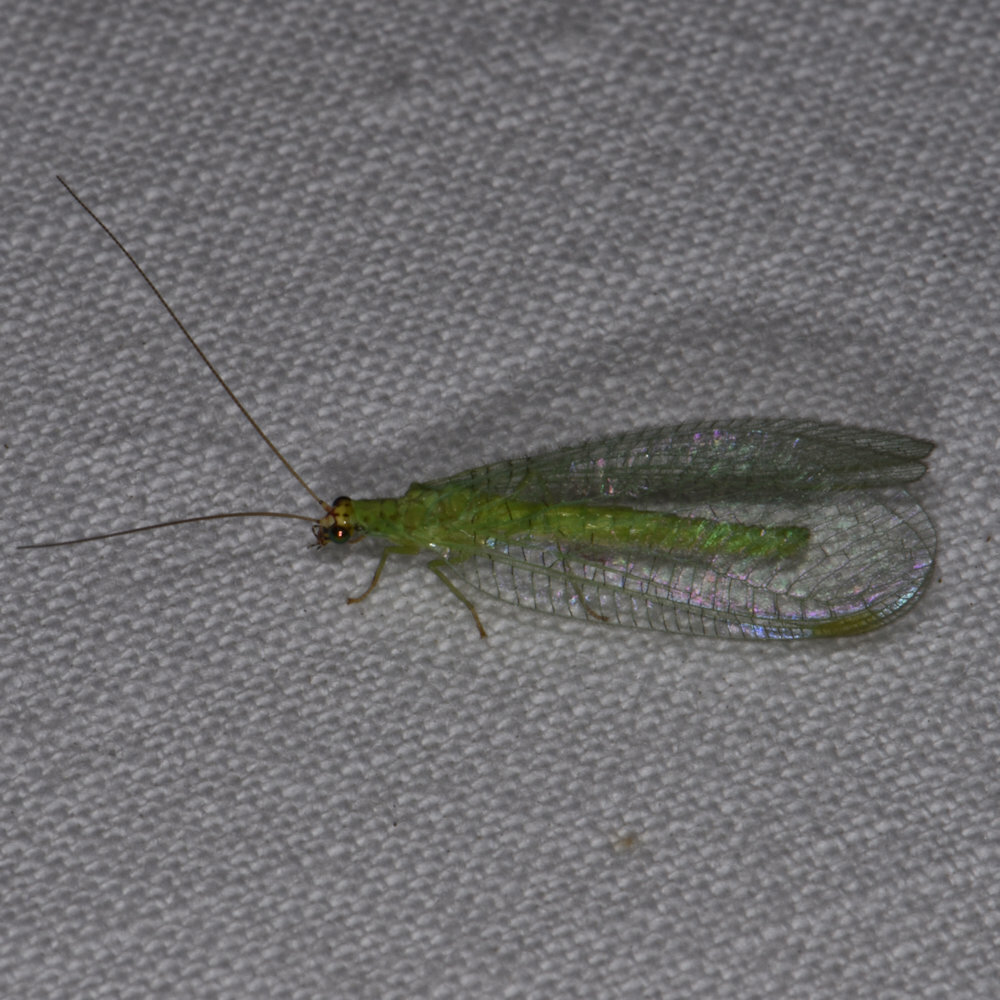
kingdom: Animalia
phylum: Arthropoda
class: Insecta
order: Neuroptera
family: Chrysopidae
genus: Chrysopa
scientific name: Chrysopa oculata
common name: Golden-eyed lacewing
